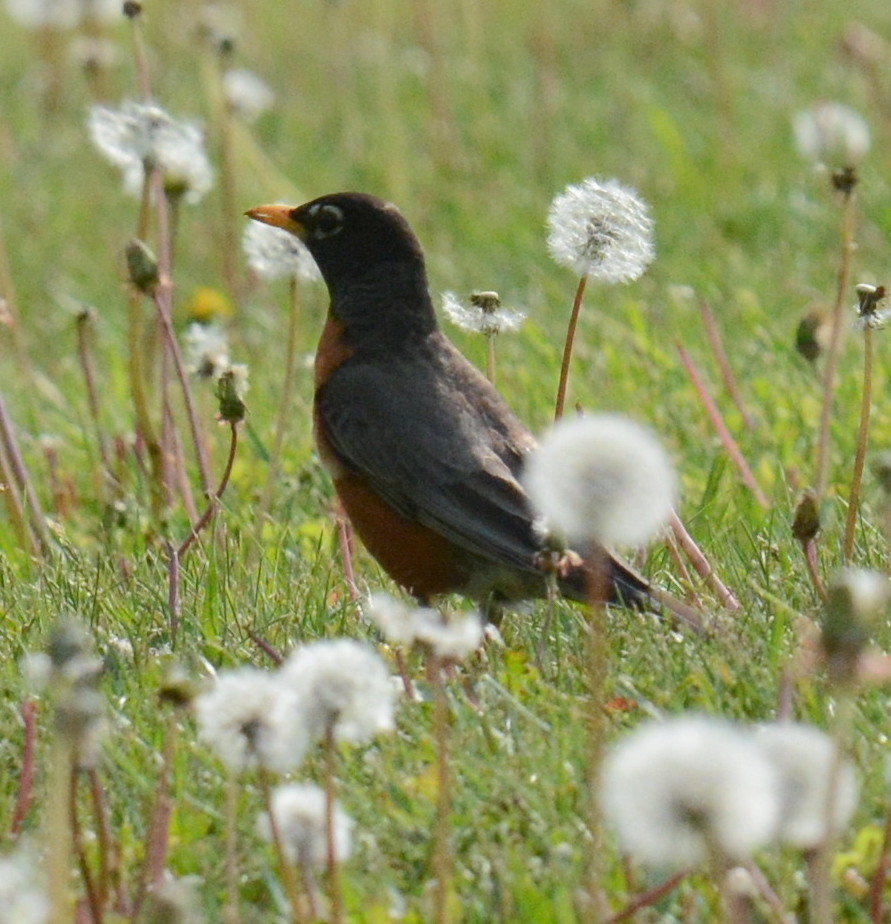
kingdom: Animalia
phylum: Chordata
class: Aves
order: Passeriformes
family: Turdidae
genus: Turdus
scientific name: Turdus migratorius
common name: American robin
